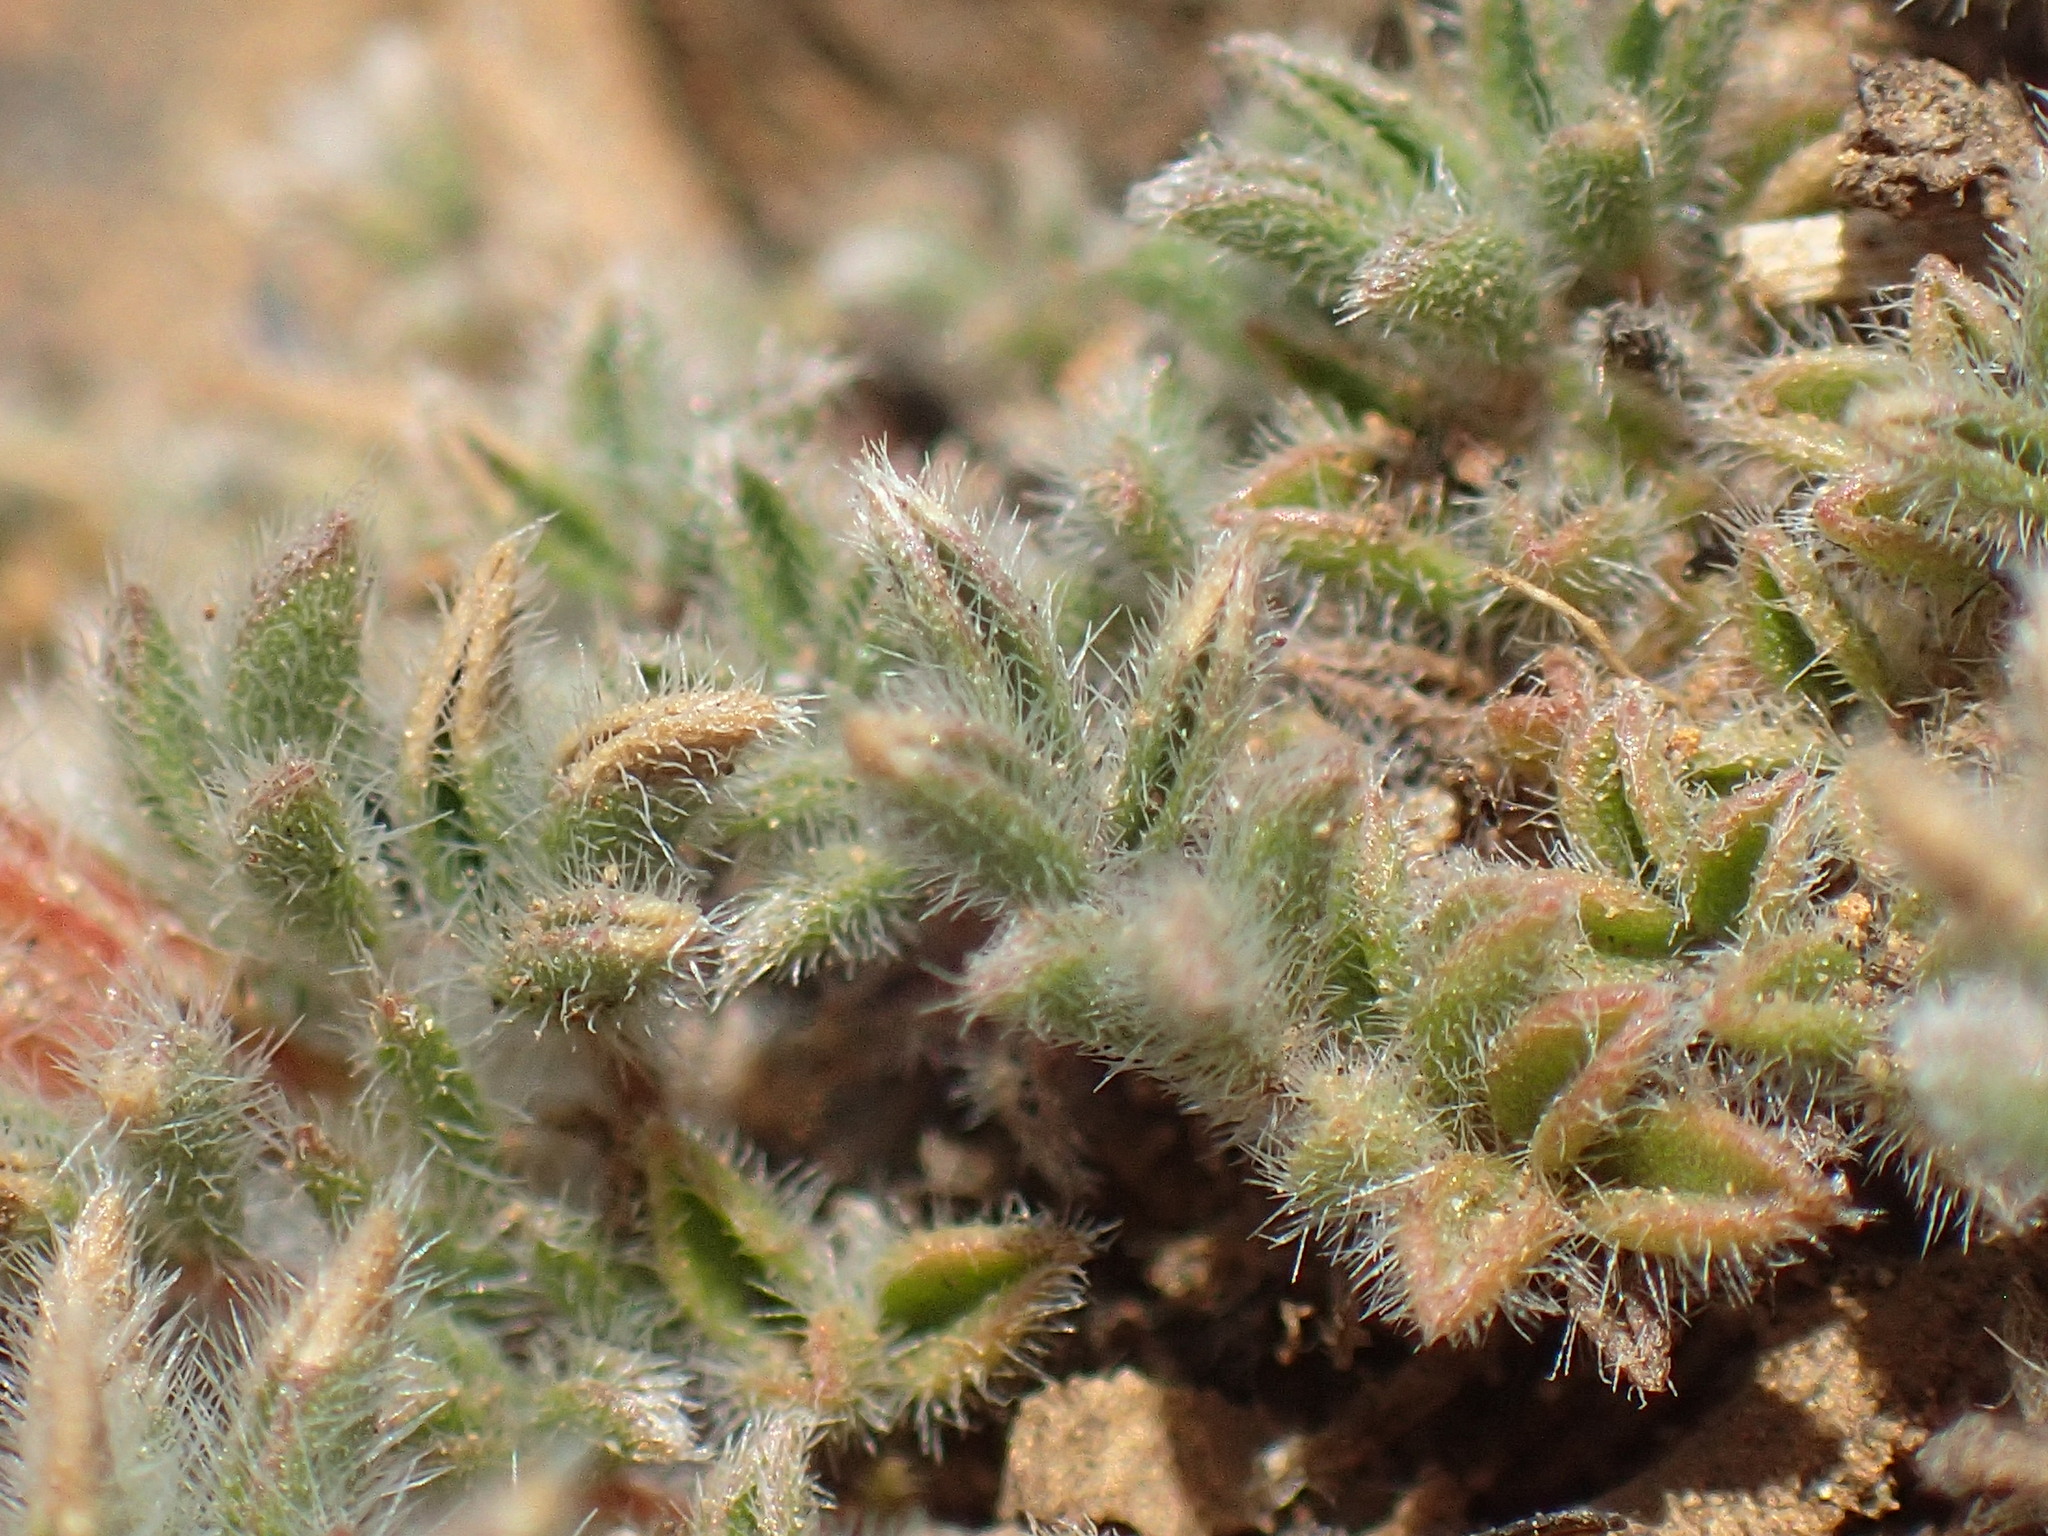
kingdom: Plantae
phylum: Tracheophyta
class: Magnoliopsida
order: Fabales
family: Fabaceae
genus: Lotononis
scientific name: Lotononis laxa
